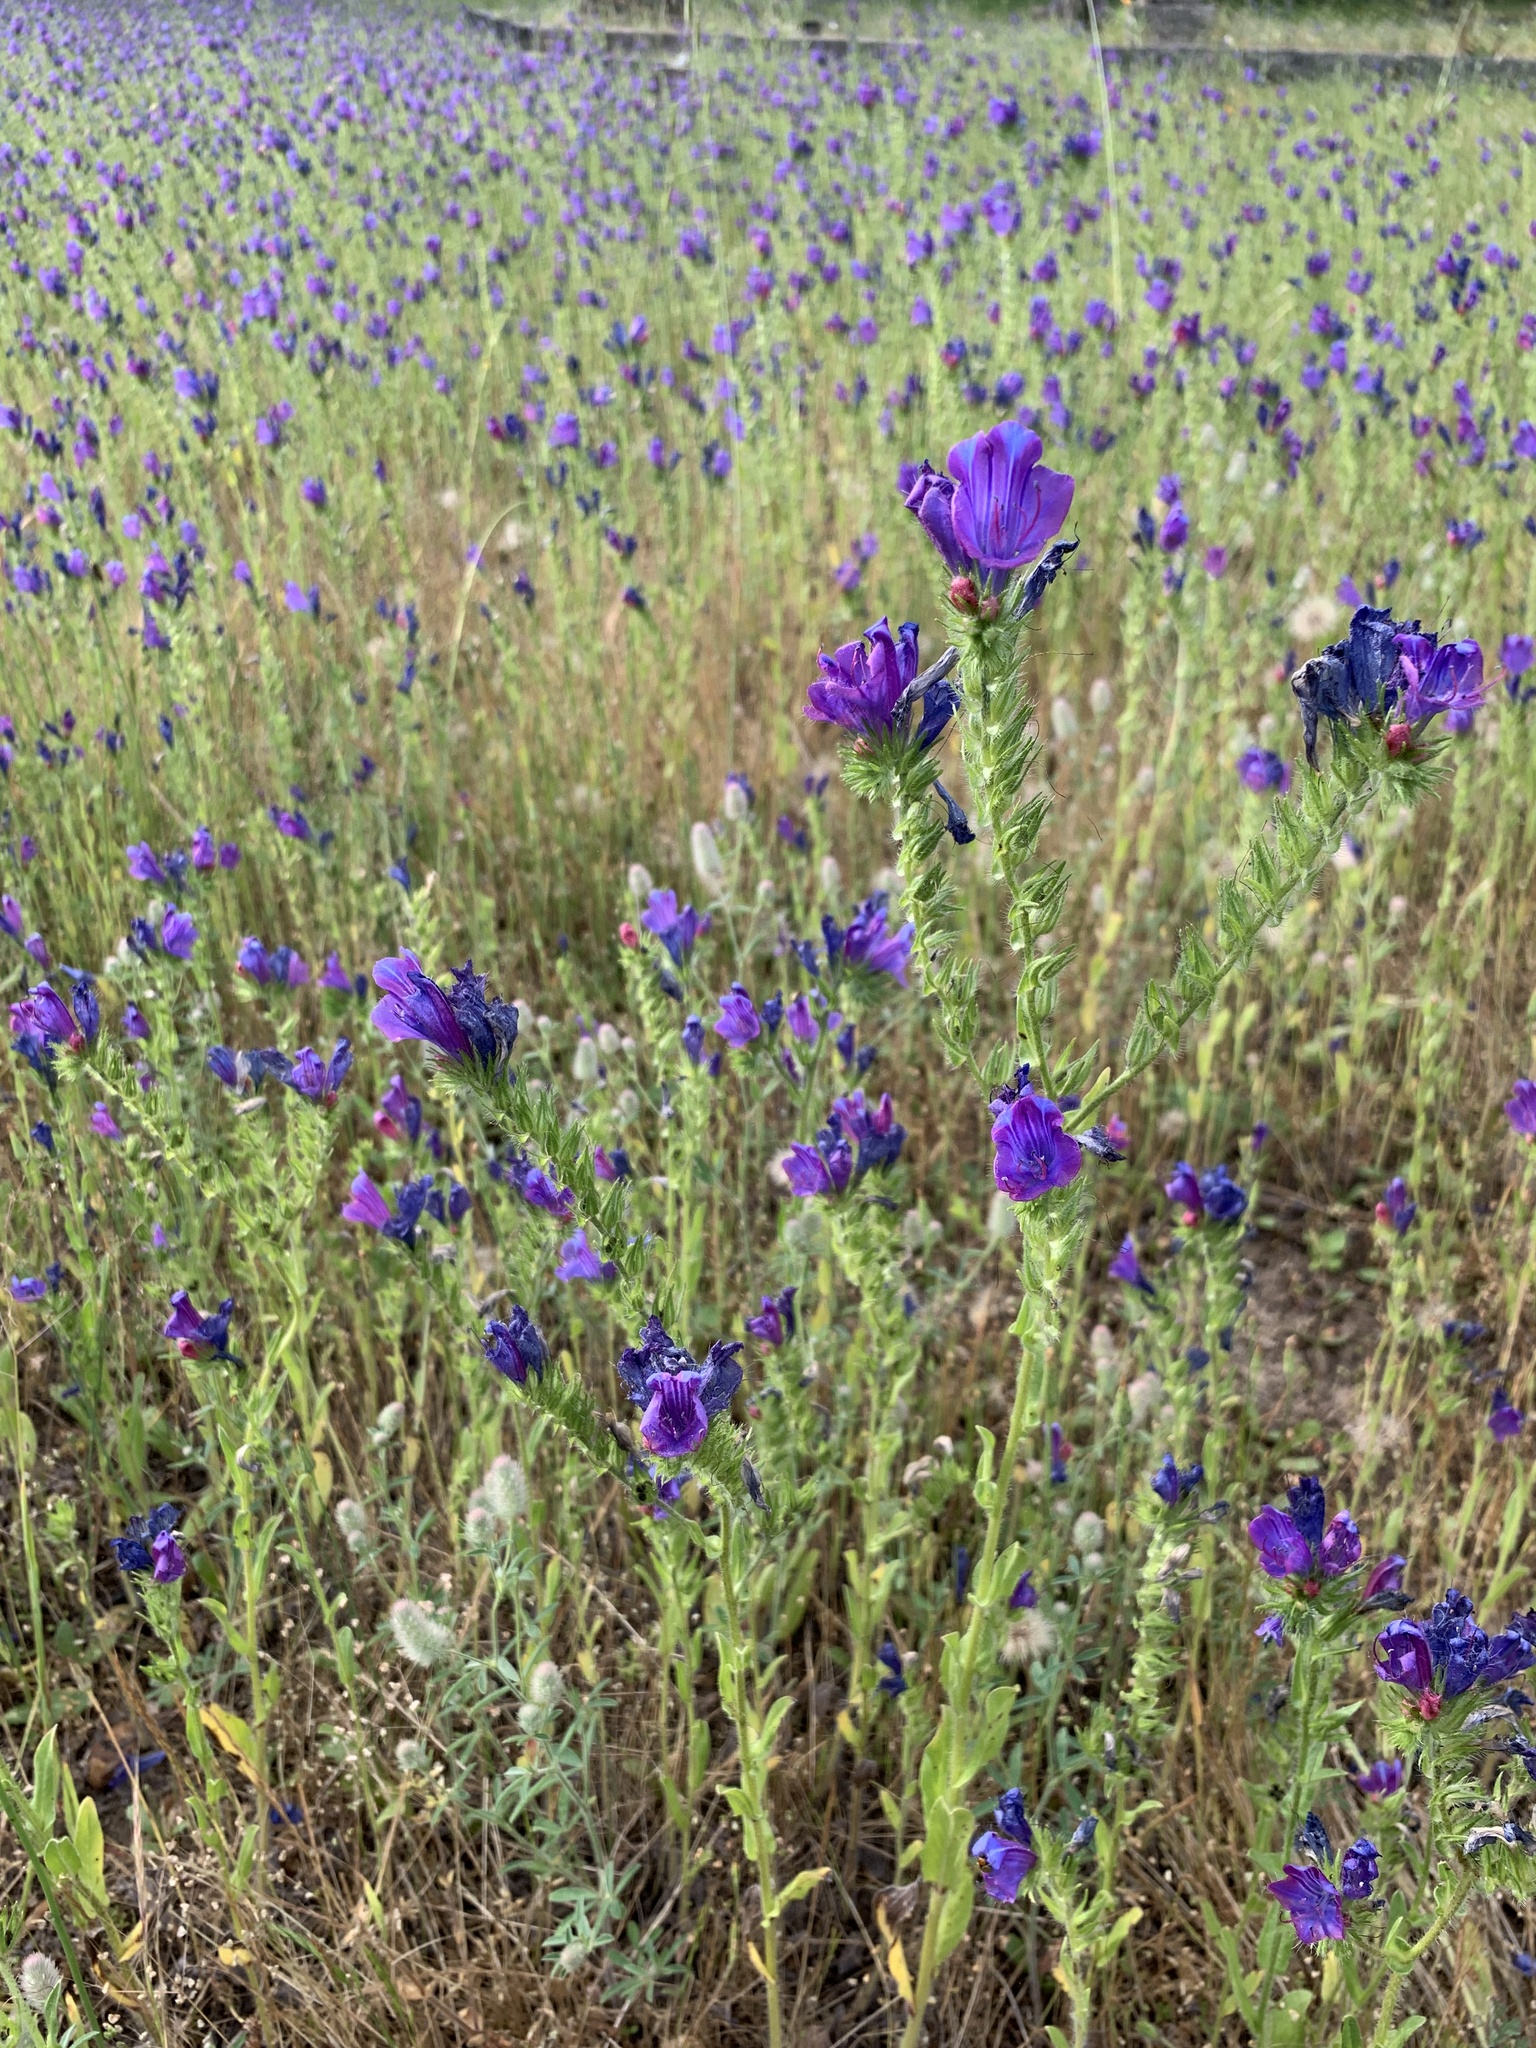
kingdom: Plantae
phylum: Tracheophyta
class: Magnoliopsida
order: Boraginales
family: Boraginaceae
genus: Echium
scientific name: Echium plantagineum
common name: Purple viper's-bugloss
